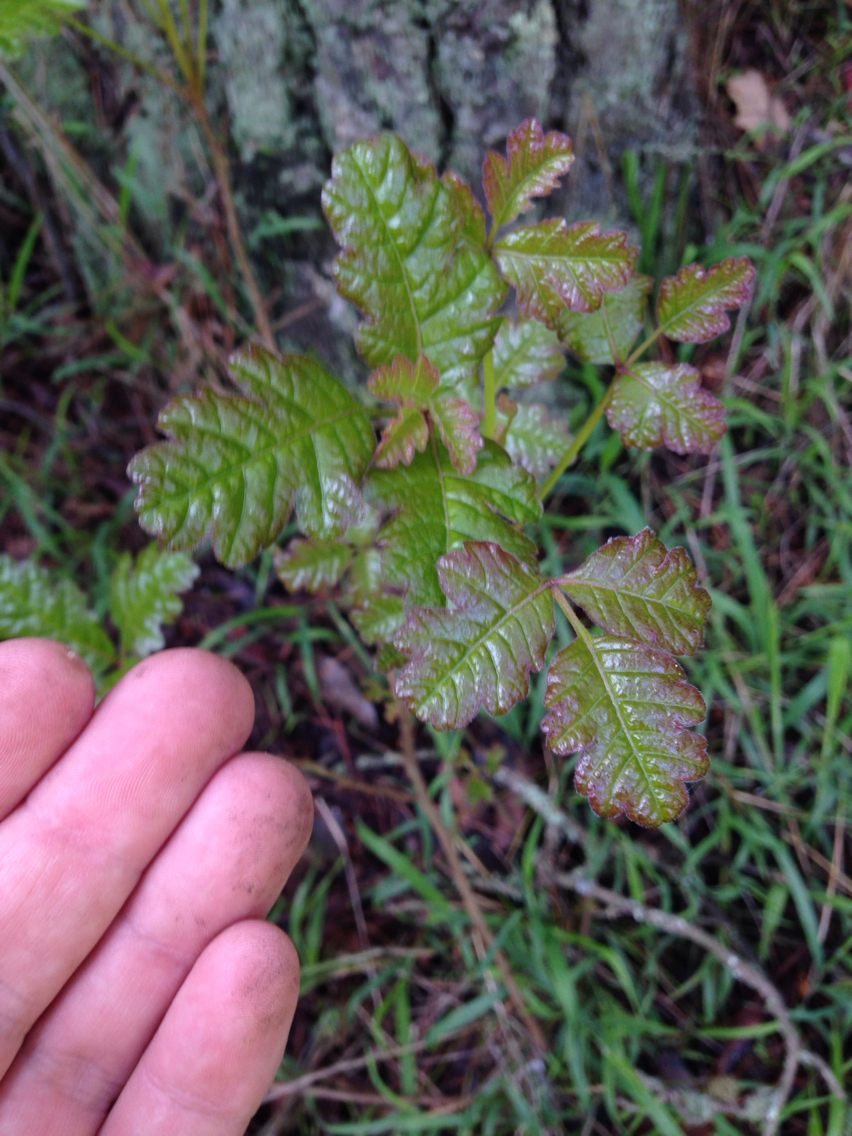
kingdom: Plantae
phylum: Tracheophyta
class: Magnoliopsida
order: Sapindales
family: Anacardiaceae
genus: Toxicodendron
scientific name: Toxicodendron diversilobum
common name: Pacific poison-oak
